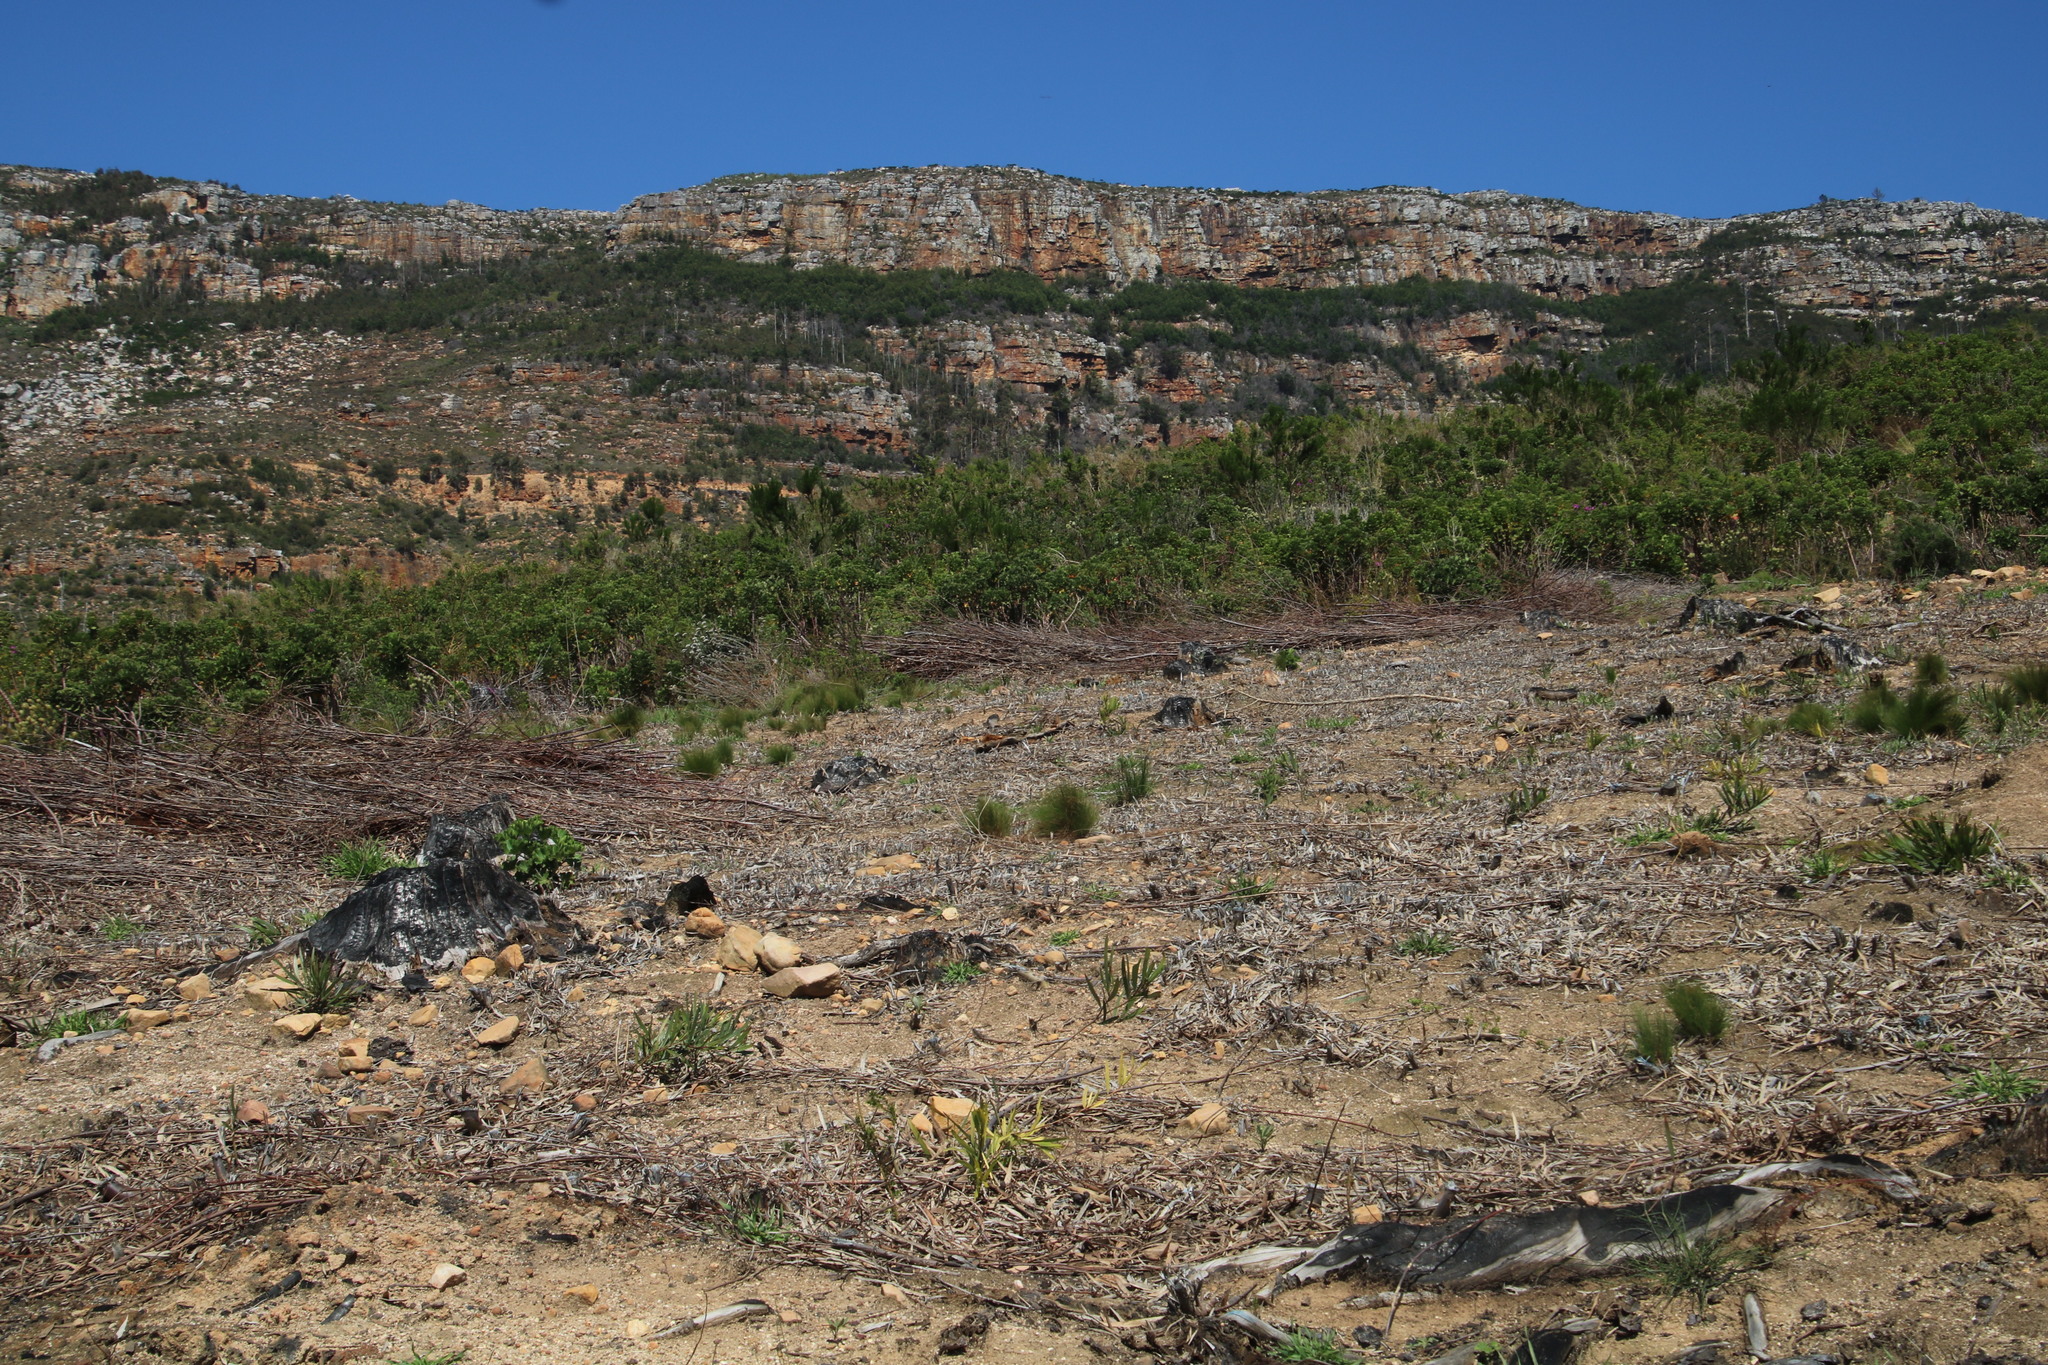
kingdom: Plantae
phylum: Tracheophyta
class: Magnoliopsida
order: Fabales
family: Fabaceae
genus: Acacia
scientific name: Acacia longifolia
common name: Sydney golden wattle
